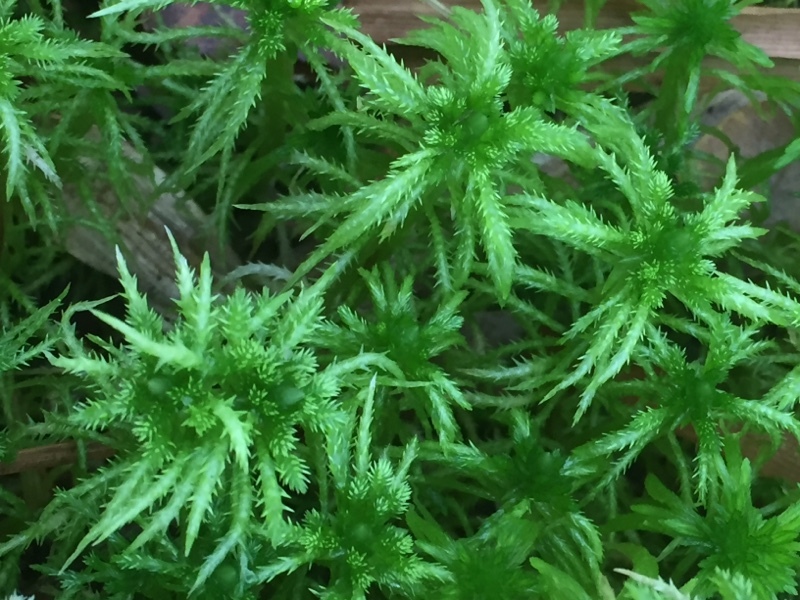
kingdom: Plantae
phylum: Bryophyta
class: Sphagnopsida
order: Sphagnales
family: Sphagnaceae
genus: Sphagnum
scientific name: Sphagnum squarrosum
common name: Shaggy peat moss
